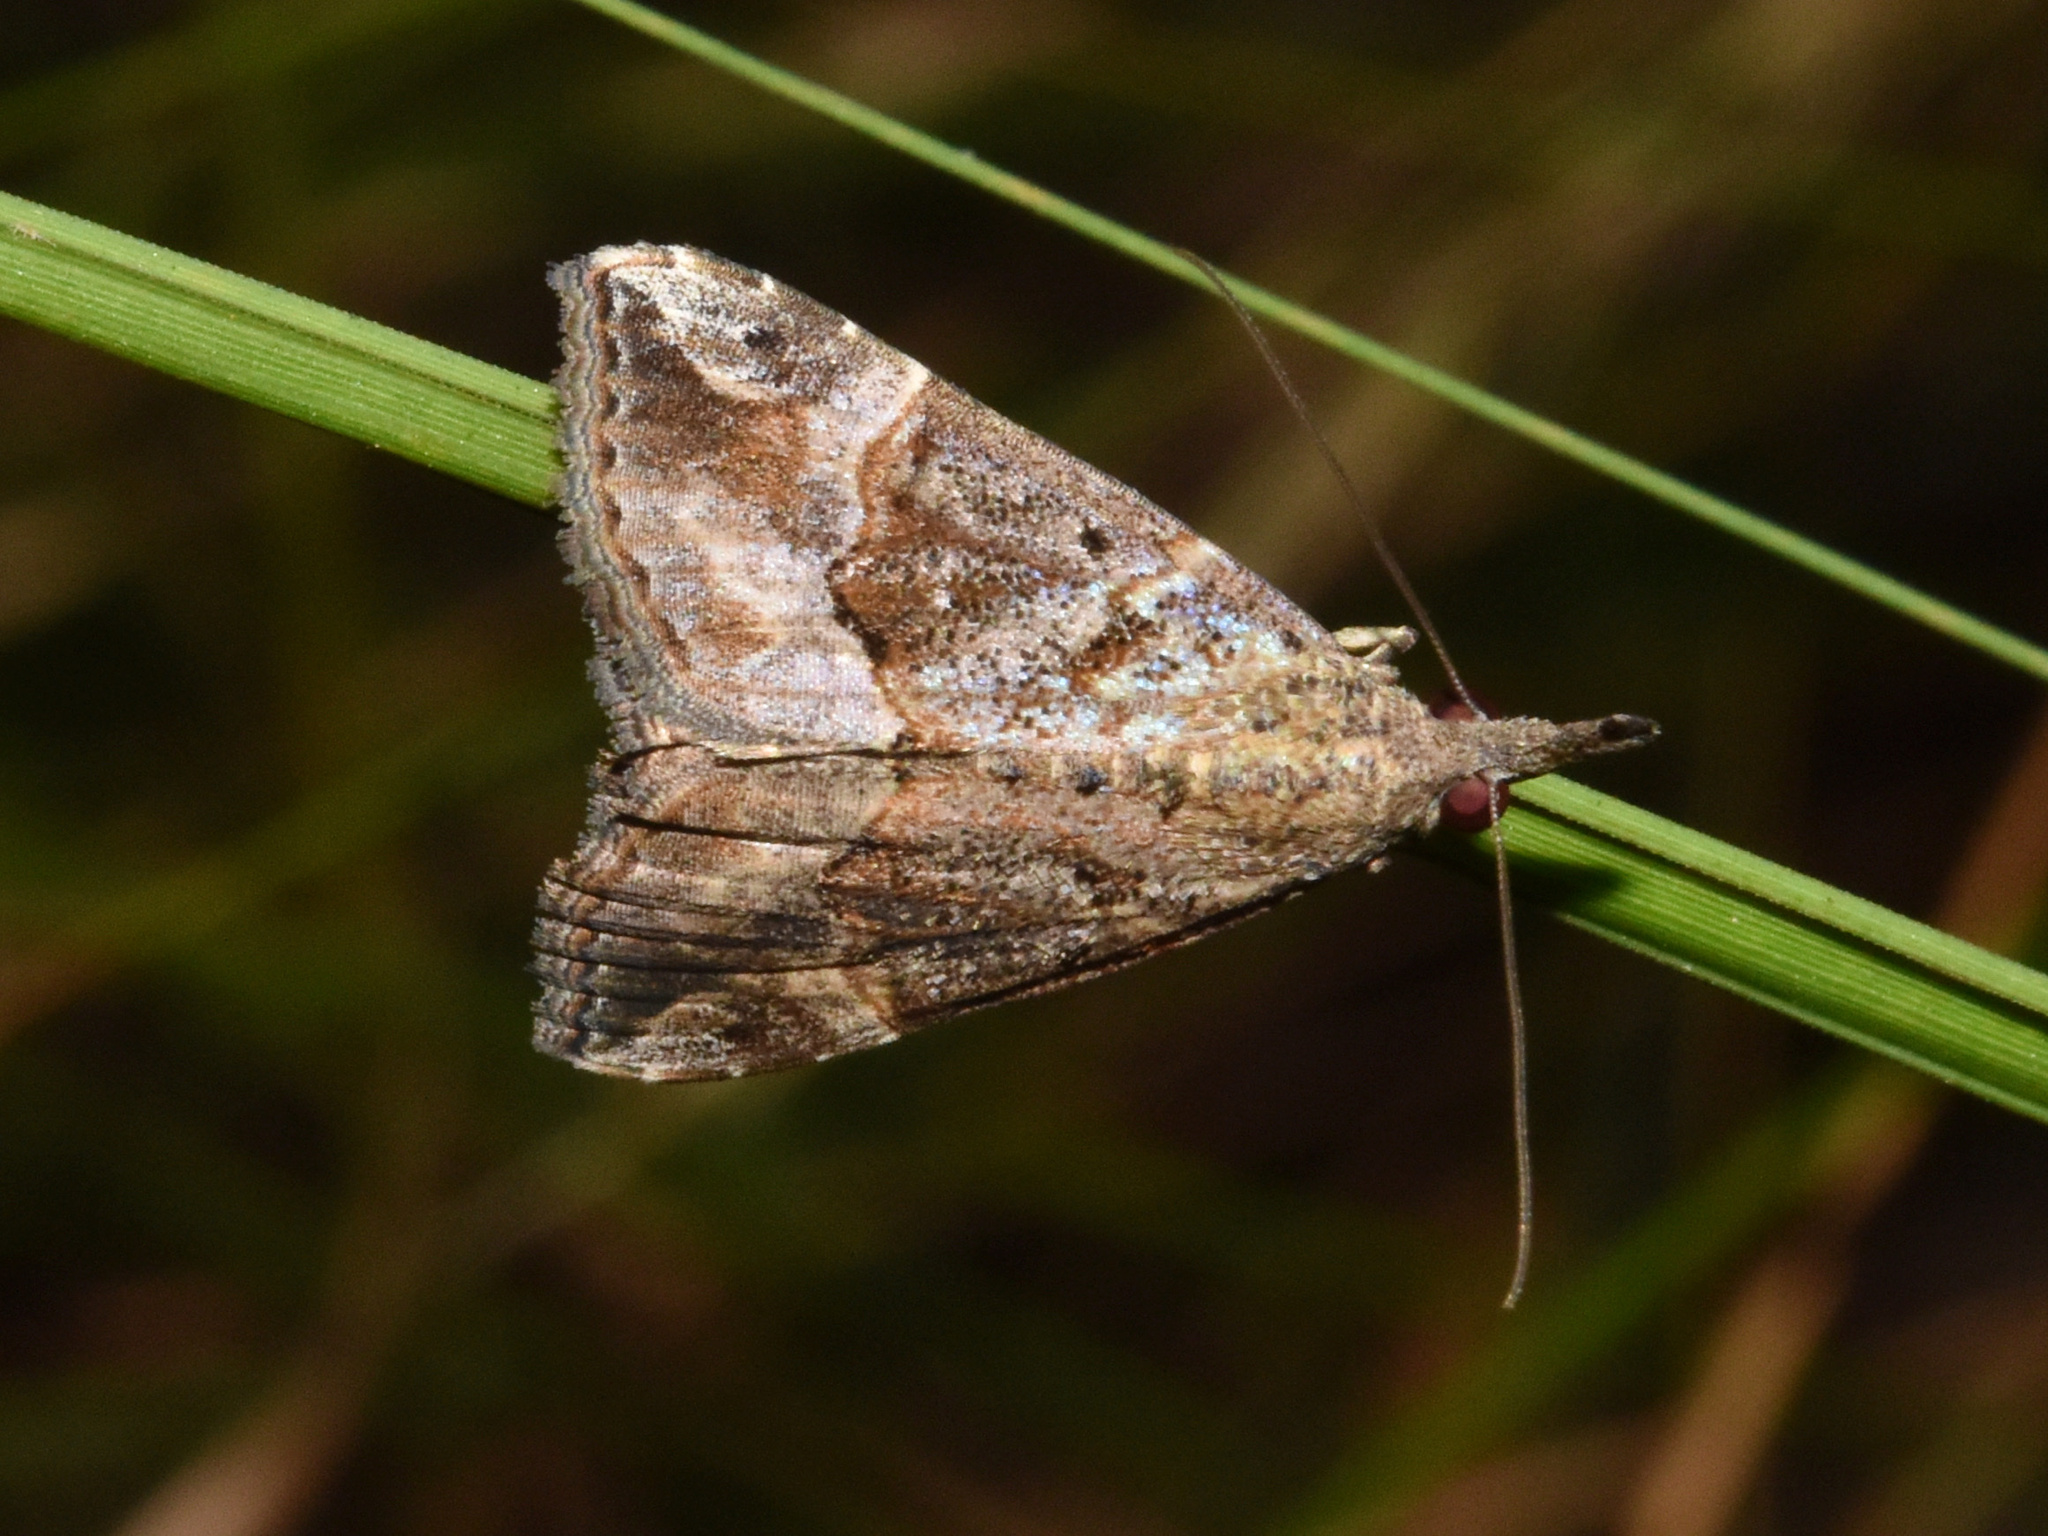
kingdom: Animalia
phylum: Arthropoda
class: Insecta
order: Lepidoptera
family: Erebidae
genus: Hypena
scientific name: Hypena commixtalis
